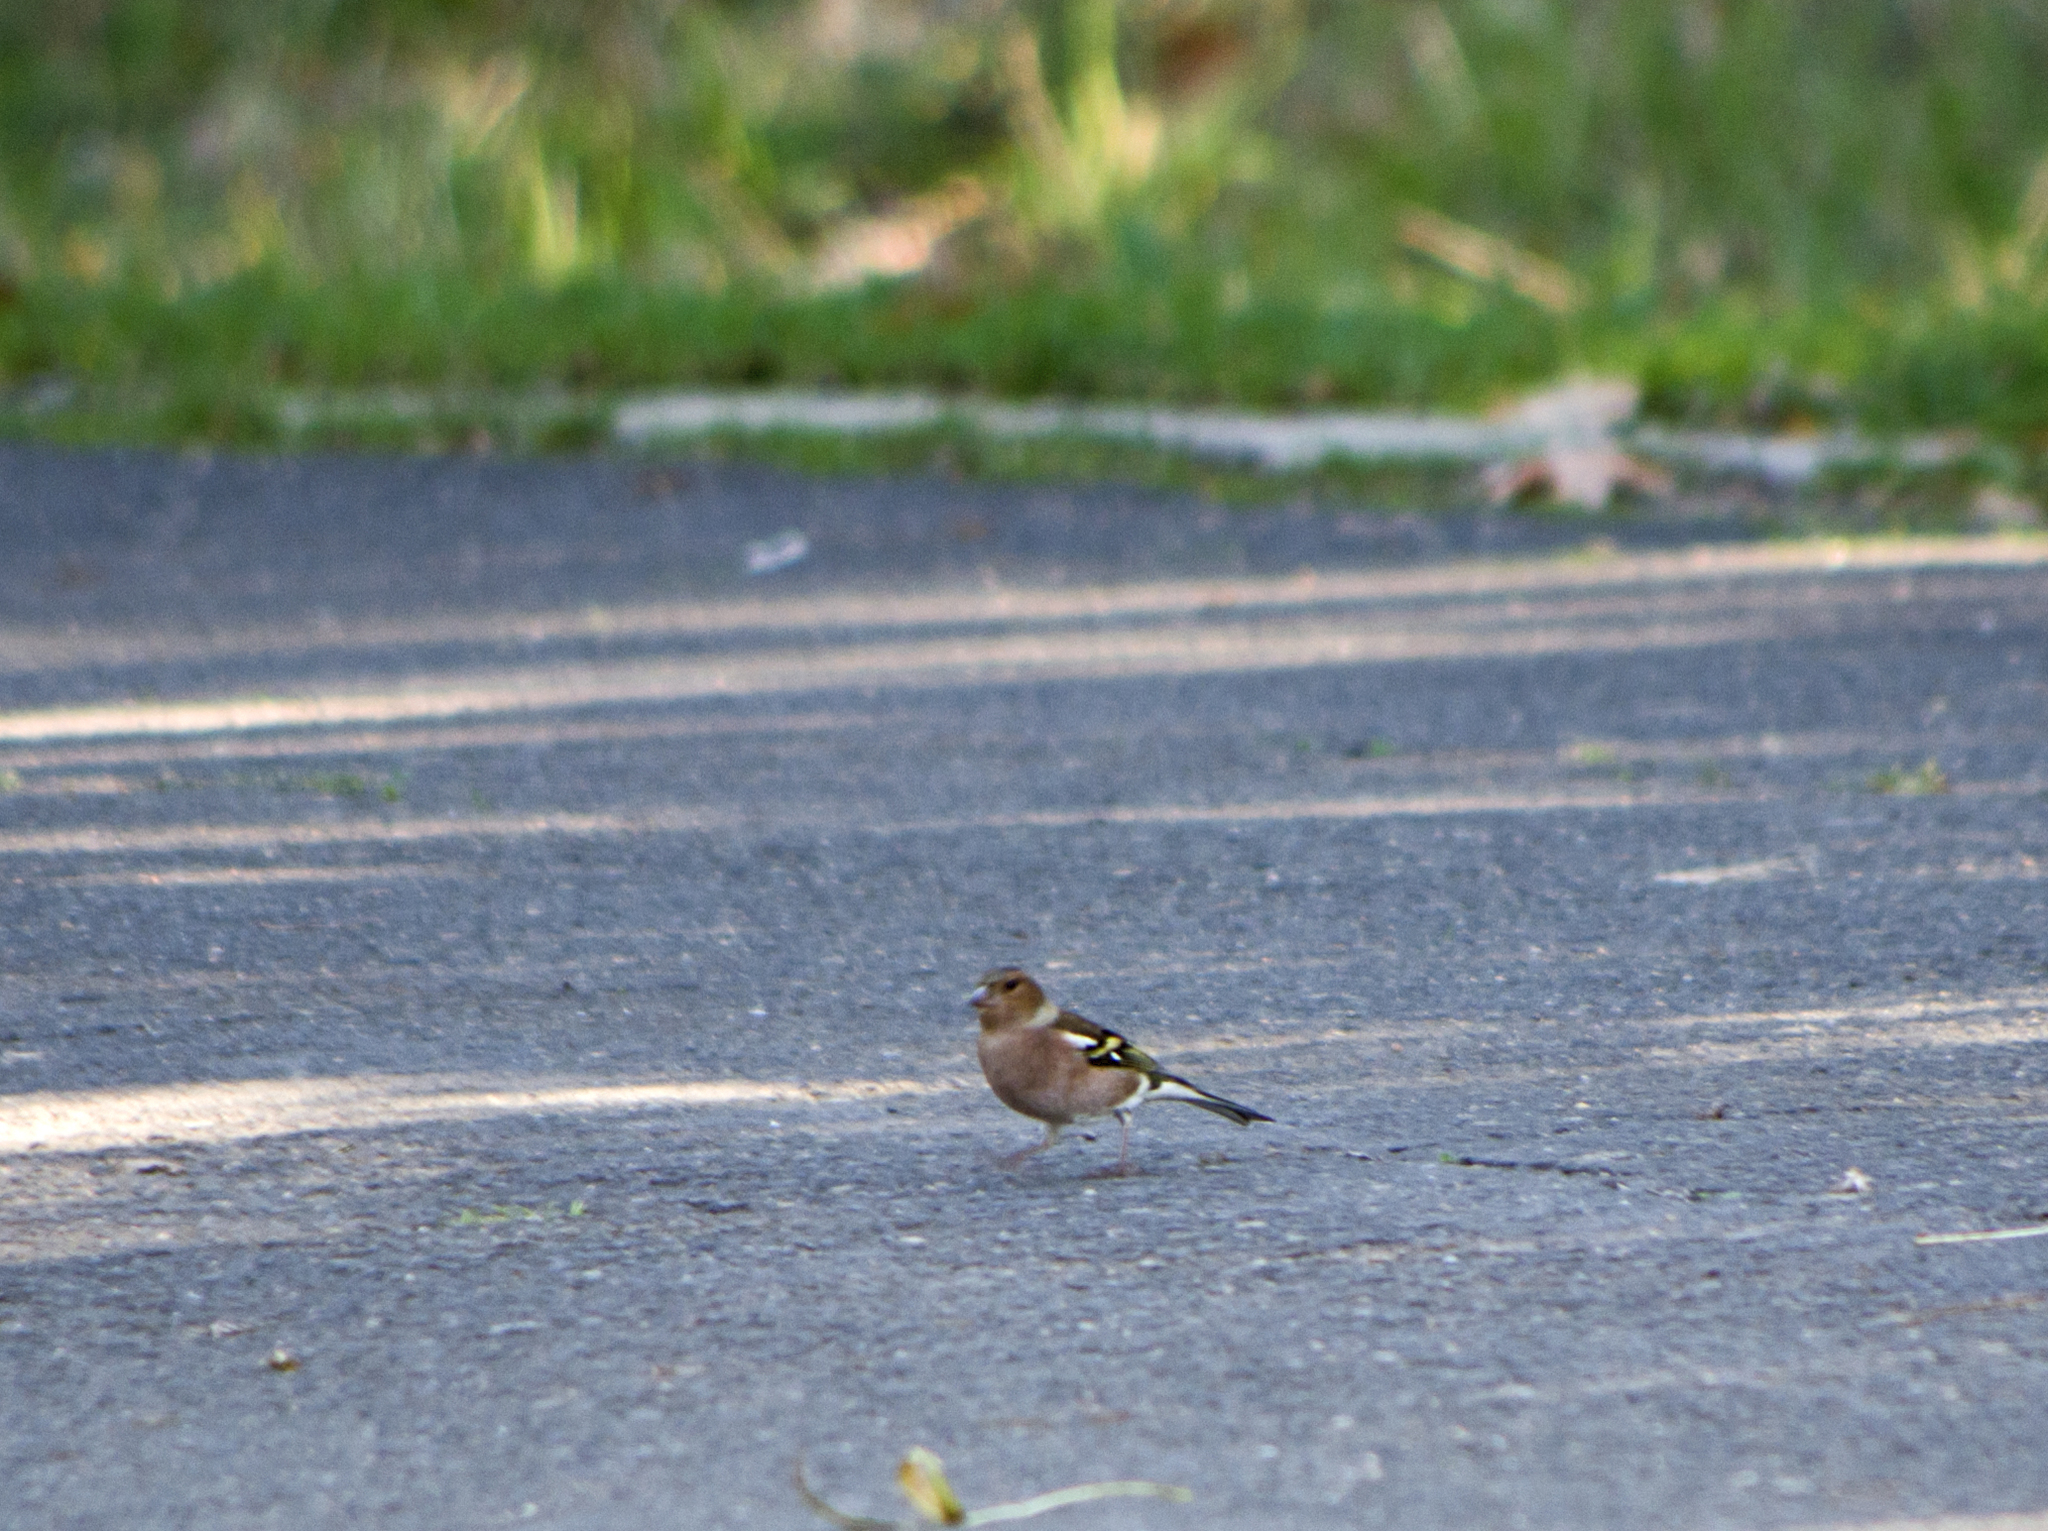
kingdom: Animalia
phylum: Chordata
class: Aves
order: Passeriformes
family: Fringillidae
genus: Fringilla
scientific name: Fringilla coelebs
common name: Common chaffinch
